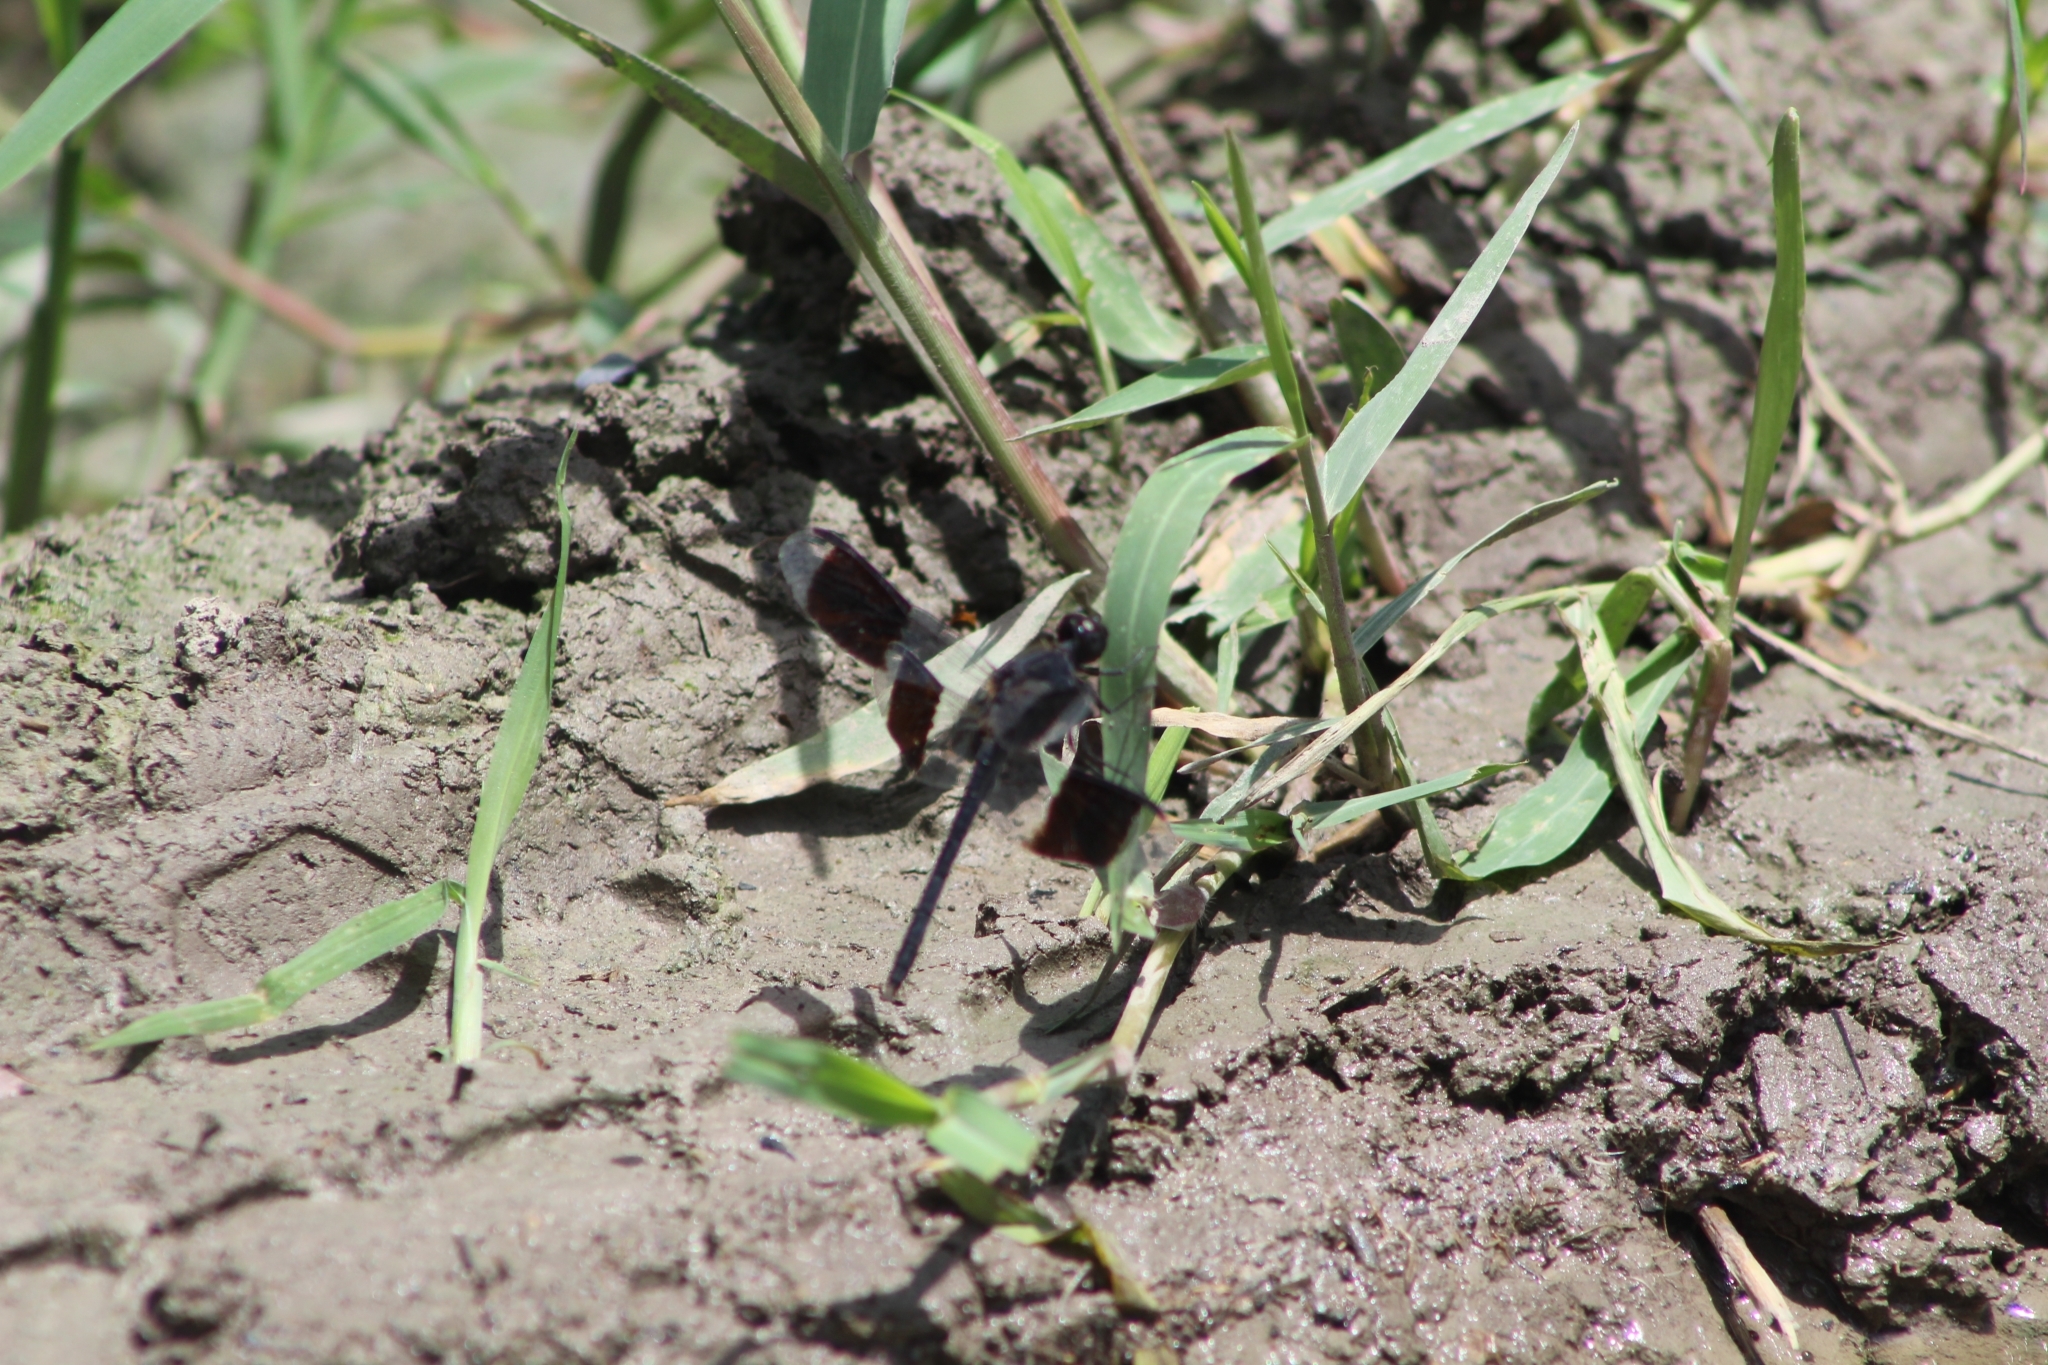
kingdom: Animalia
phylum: Arthropoda
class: Insecta
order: Odonata
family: Libellulidae
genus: Erythrodiplax
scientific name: Erythrodiplax umbrata
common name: Band-winged dragonlet
